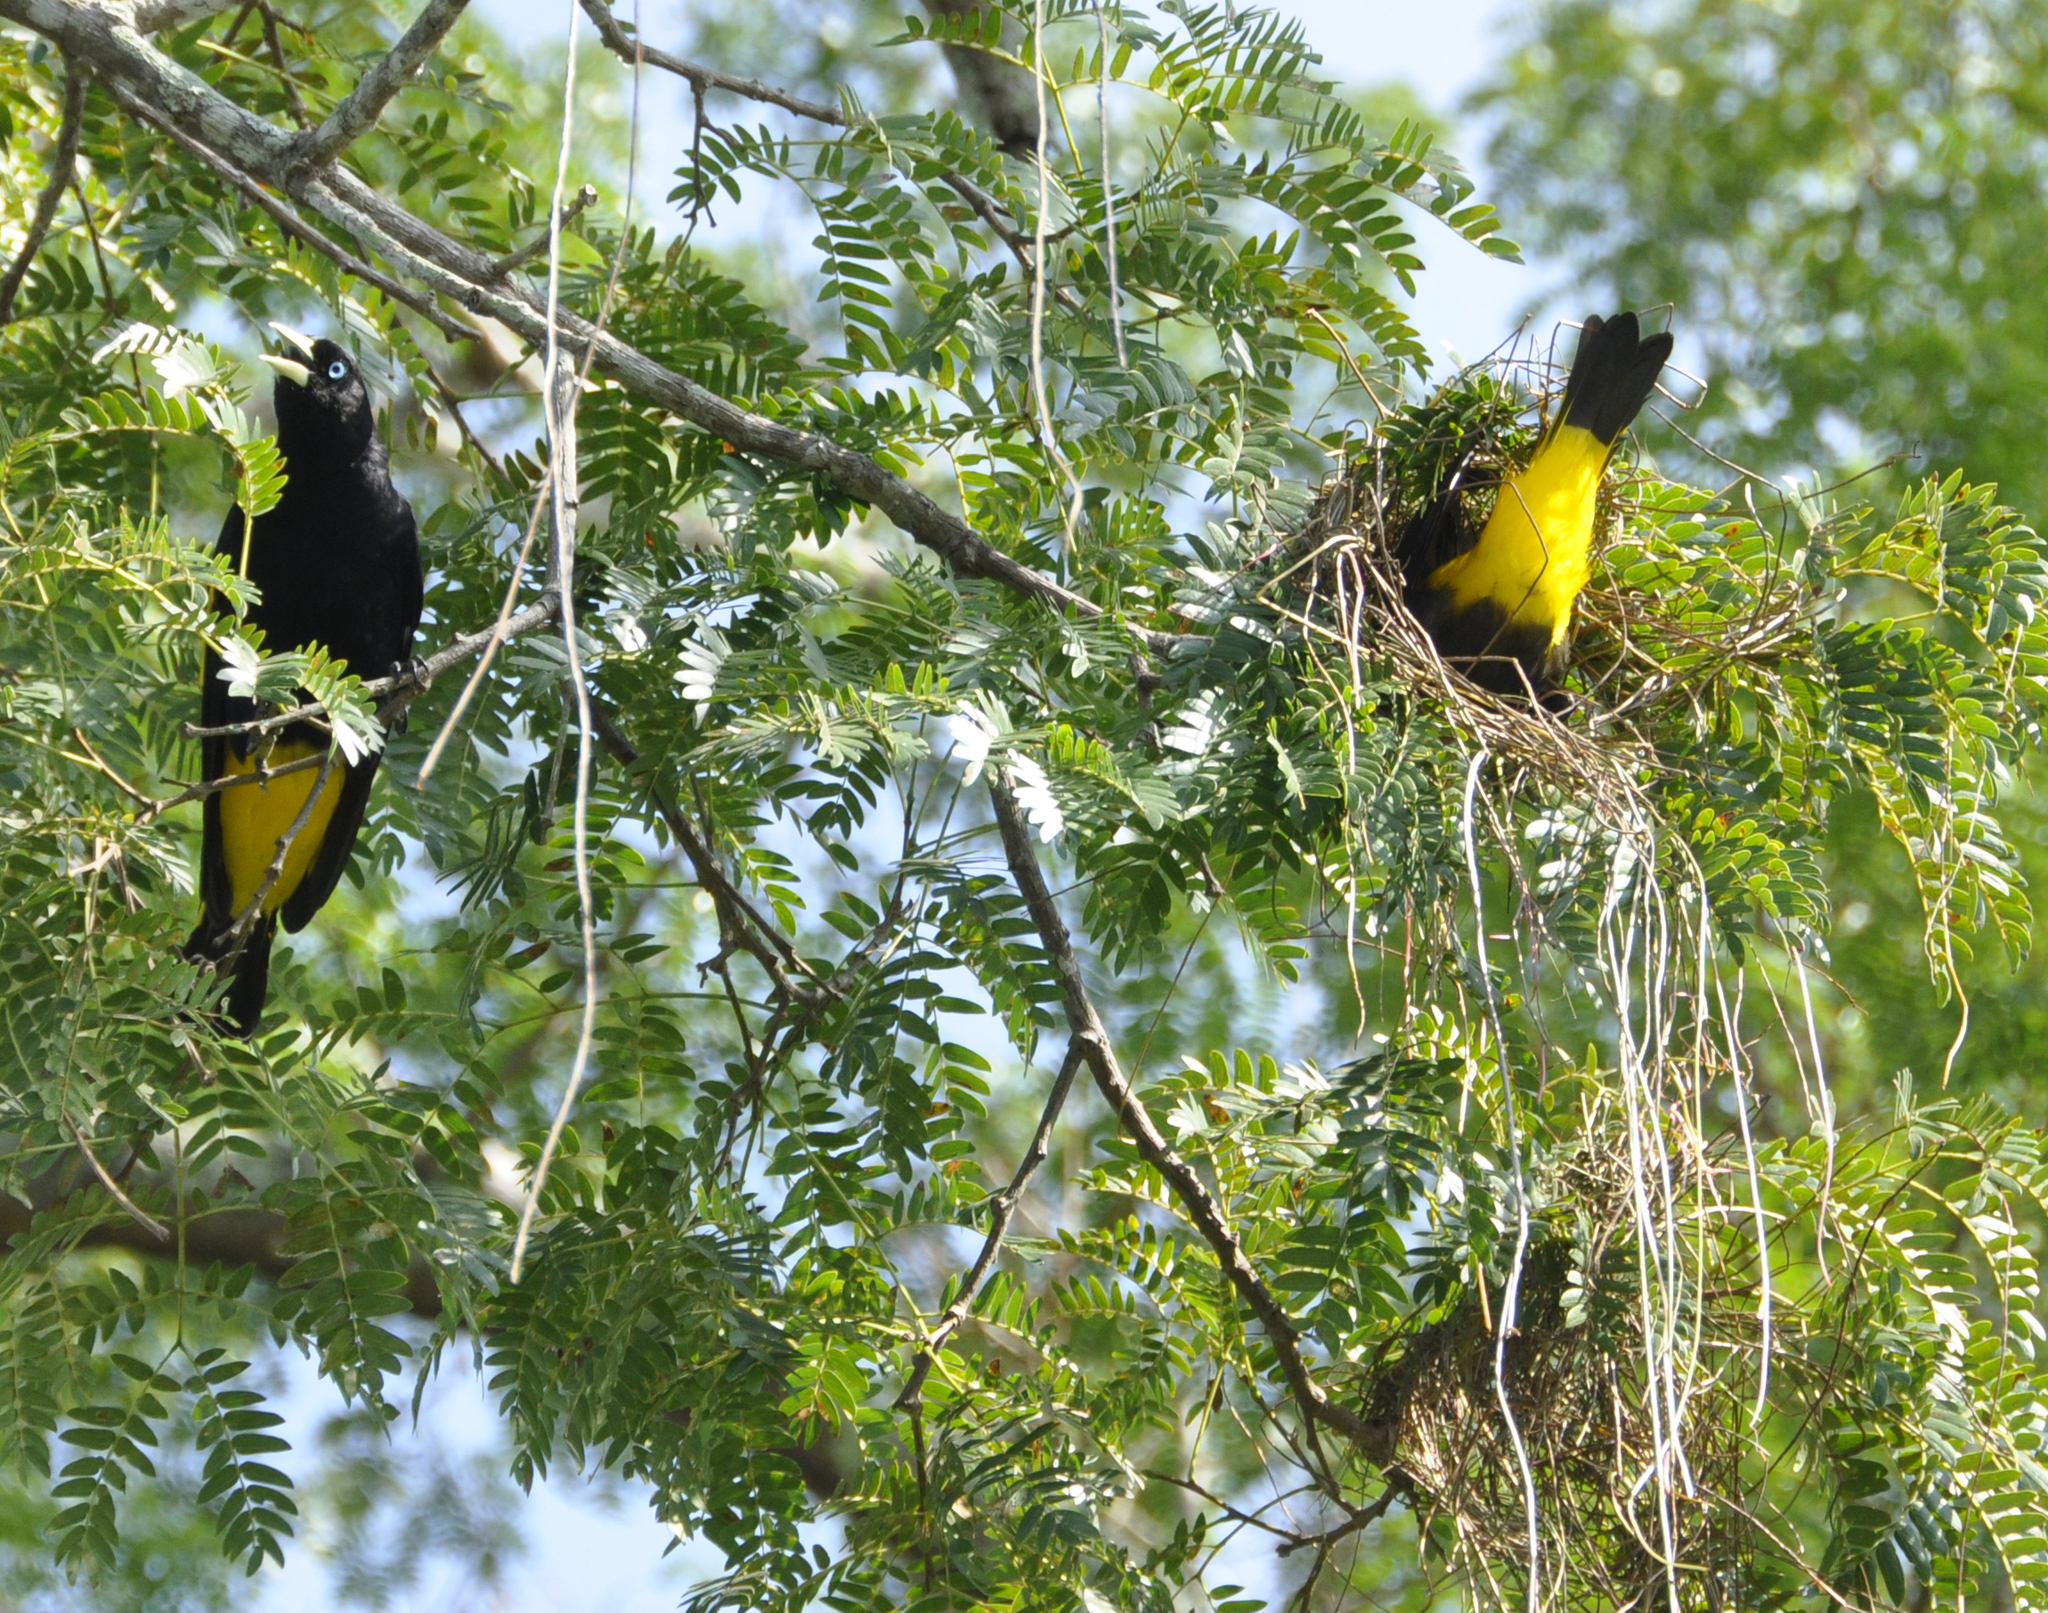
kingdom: Animalia
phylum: Chordata
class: Aves
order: Passeriformes
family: Icteridae
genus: Cacicus
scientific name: Cacicus cela
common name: Yellow-rumped cacique
